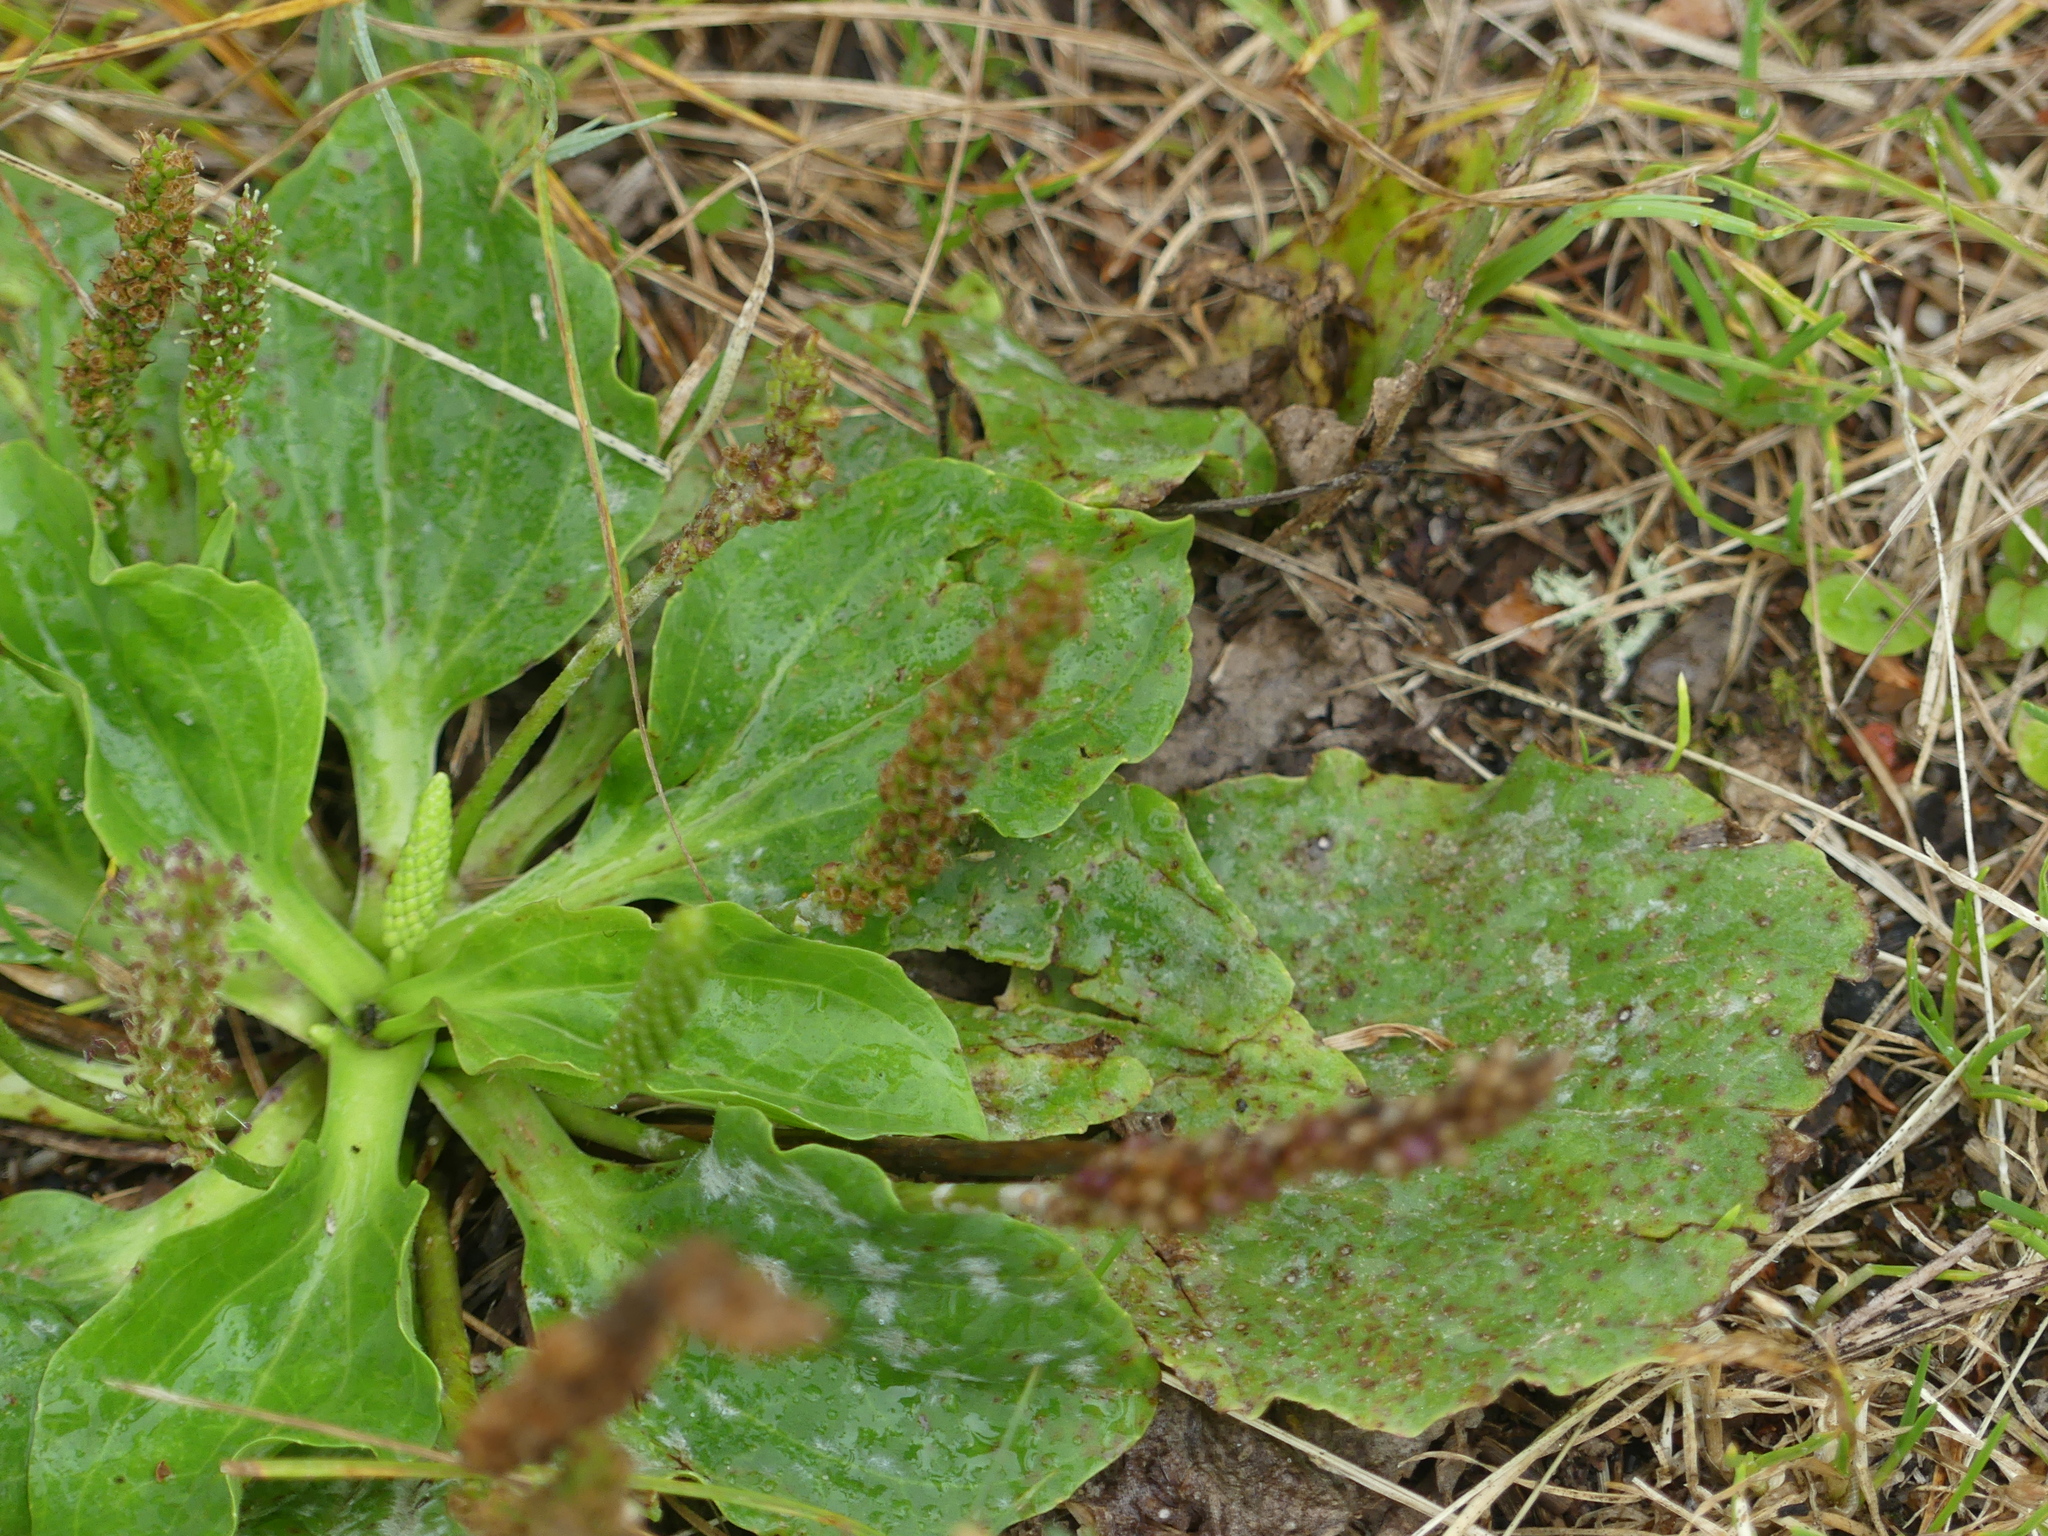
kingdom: Plantae
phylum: Tracheophyta
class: Magnoliopsida
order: Lamiales
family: Plantaginaceae
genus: Plantago
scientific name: Plantago major
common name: Common plantain
